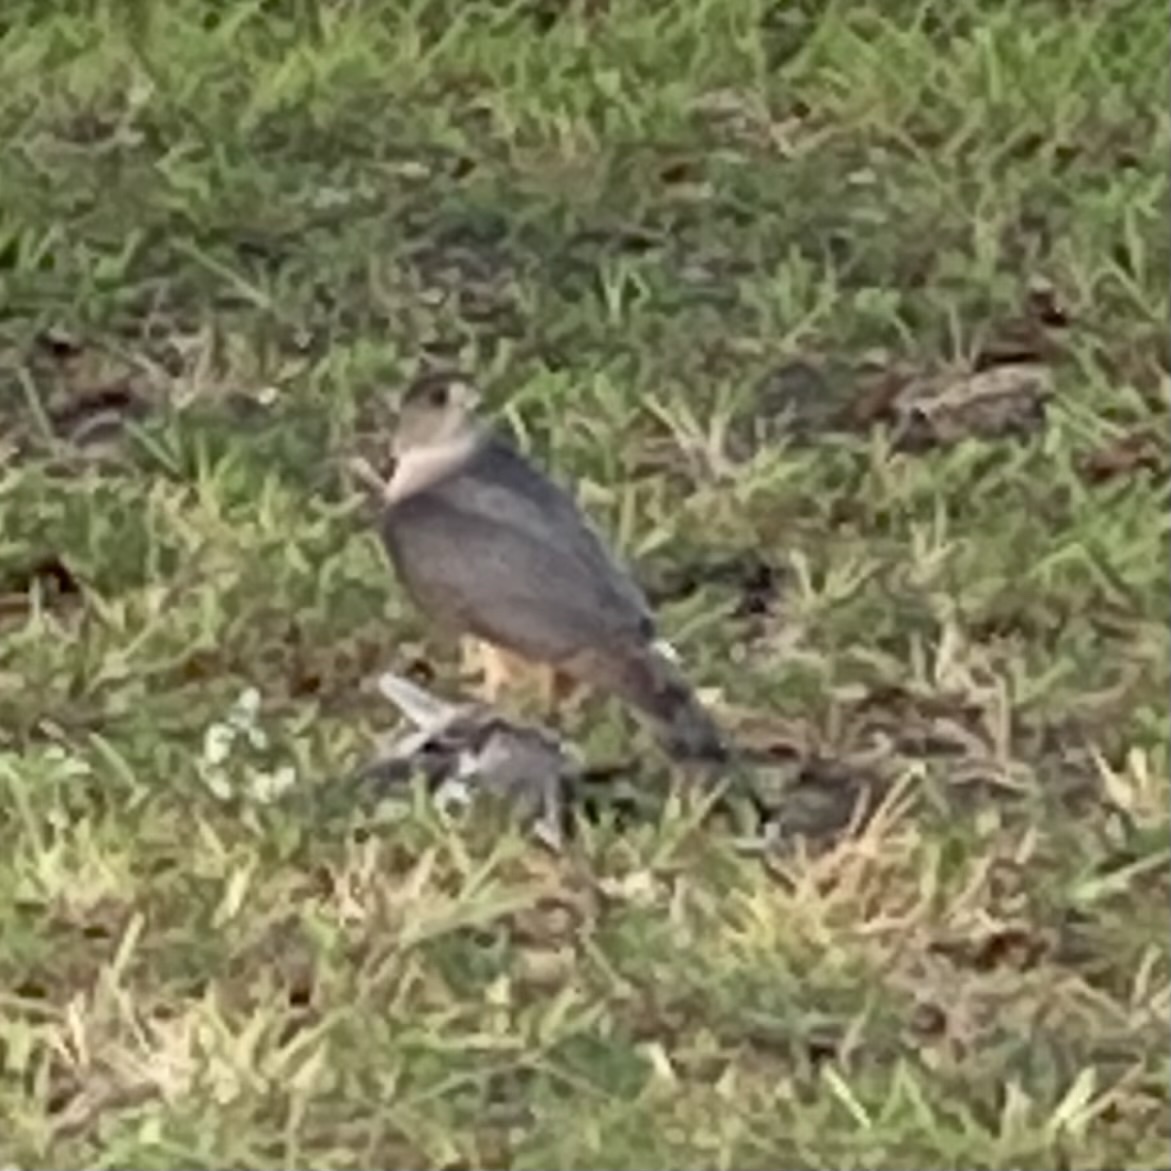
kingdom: Animalia
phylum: Chordata
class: Aves
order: Accipitriformes
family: Accipitridae
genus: Accipiter
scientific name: Accipiter cooperii
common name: Cooper's hawk
